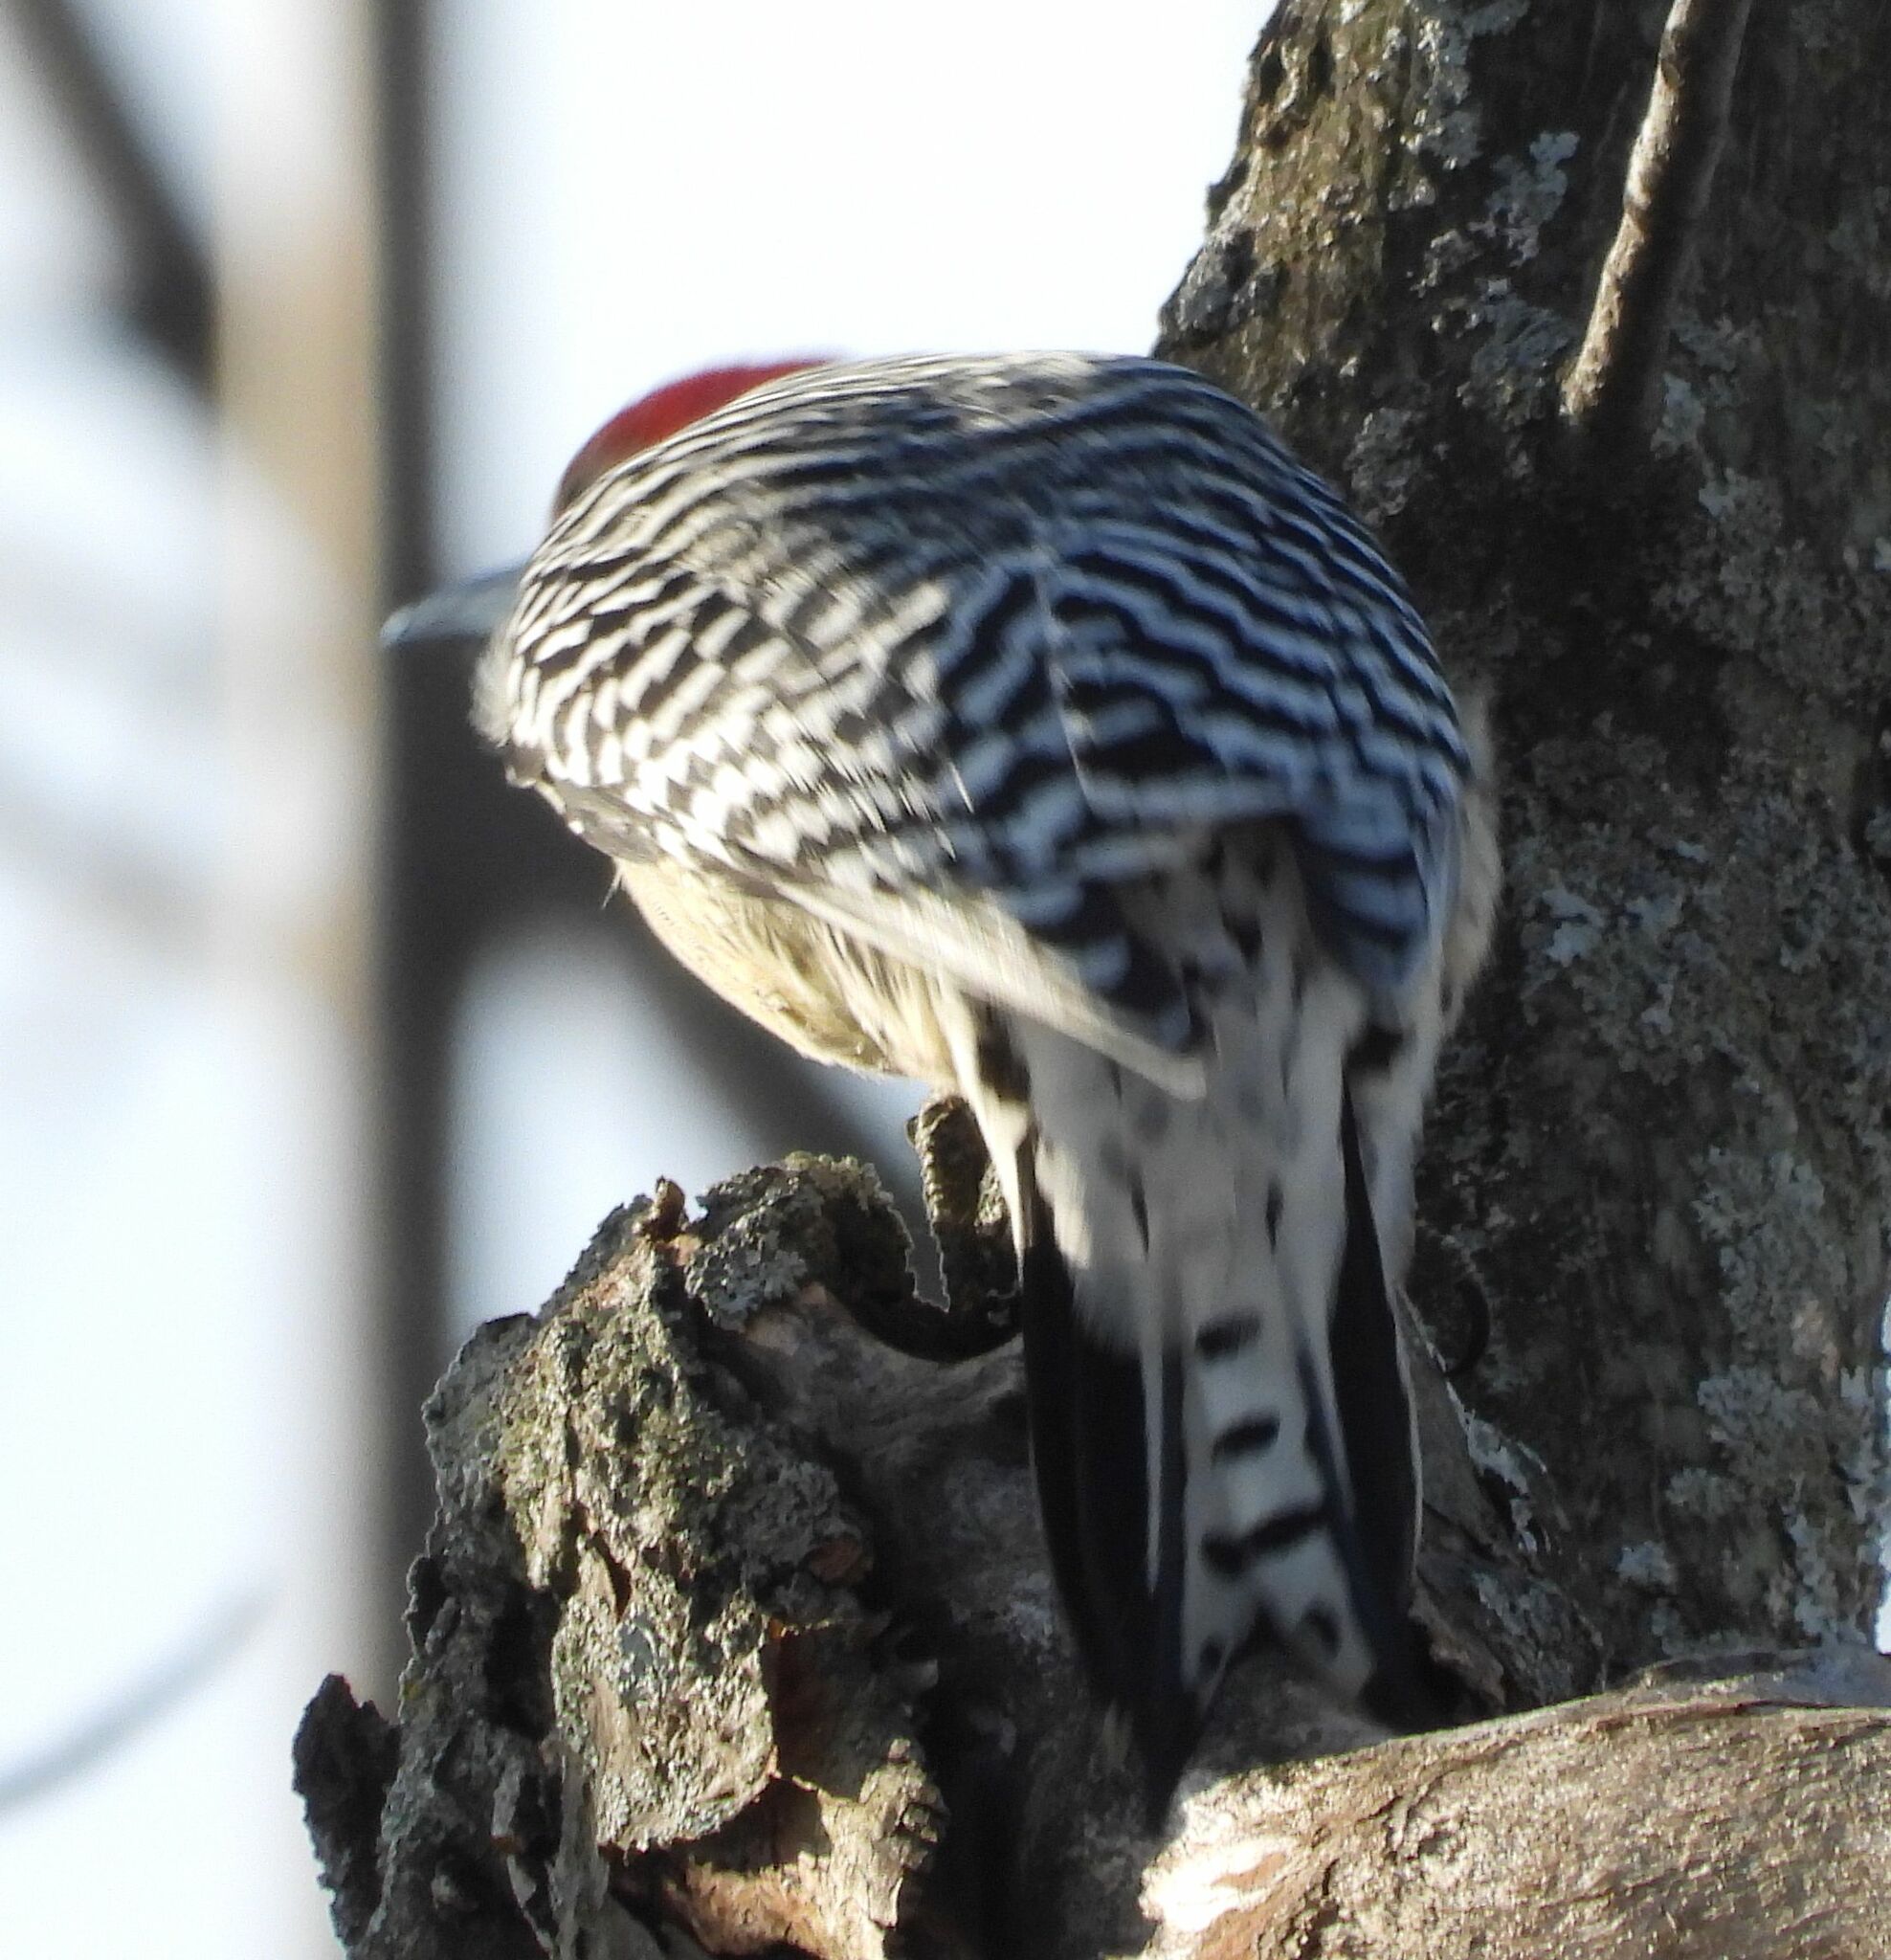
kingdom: Animalia
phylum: Chordata
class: Aves
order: Piciformes
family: Picidae
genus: Melanerpes
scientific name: Melanerpes carolinus
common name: Red-bellied woodpecker
